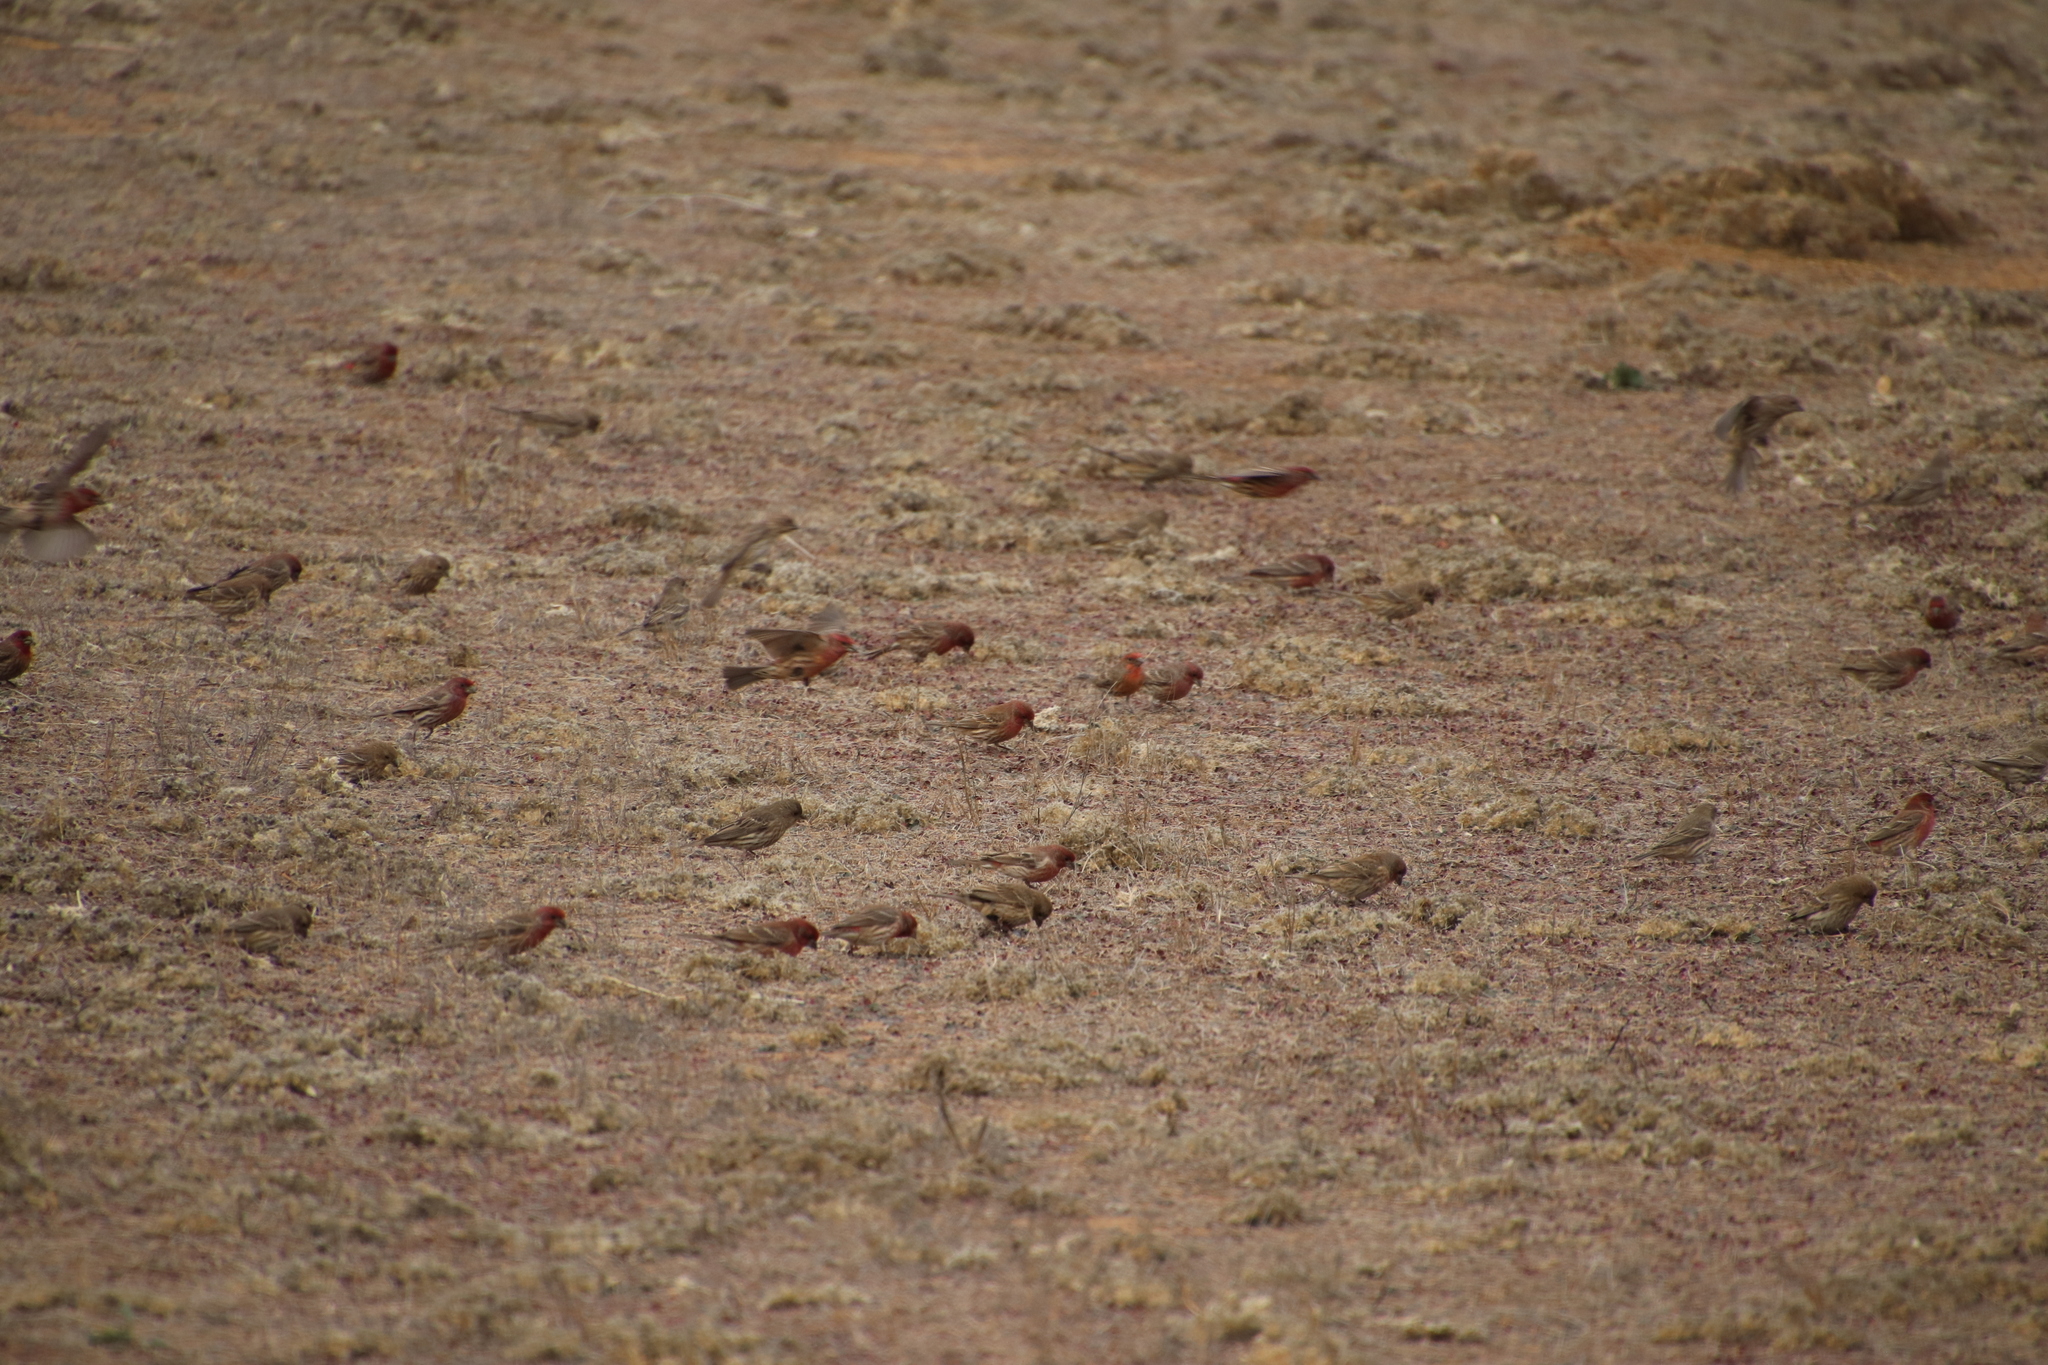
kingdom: Animalia
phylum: Chordata
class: Aves
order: Passeriformes
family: Fringillidae
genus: Haemorhous
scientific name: Haemorhous mexicanus
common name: House finch
